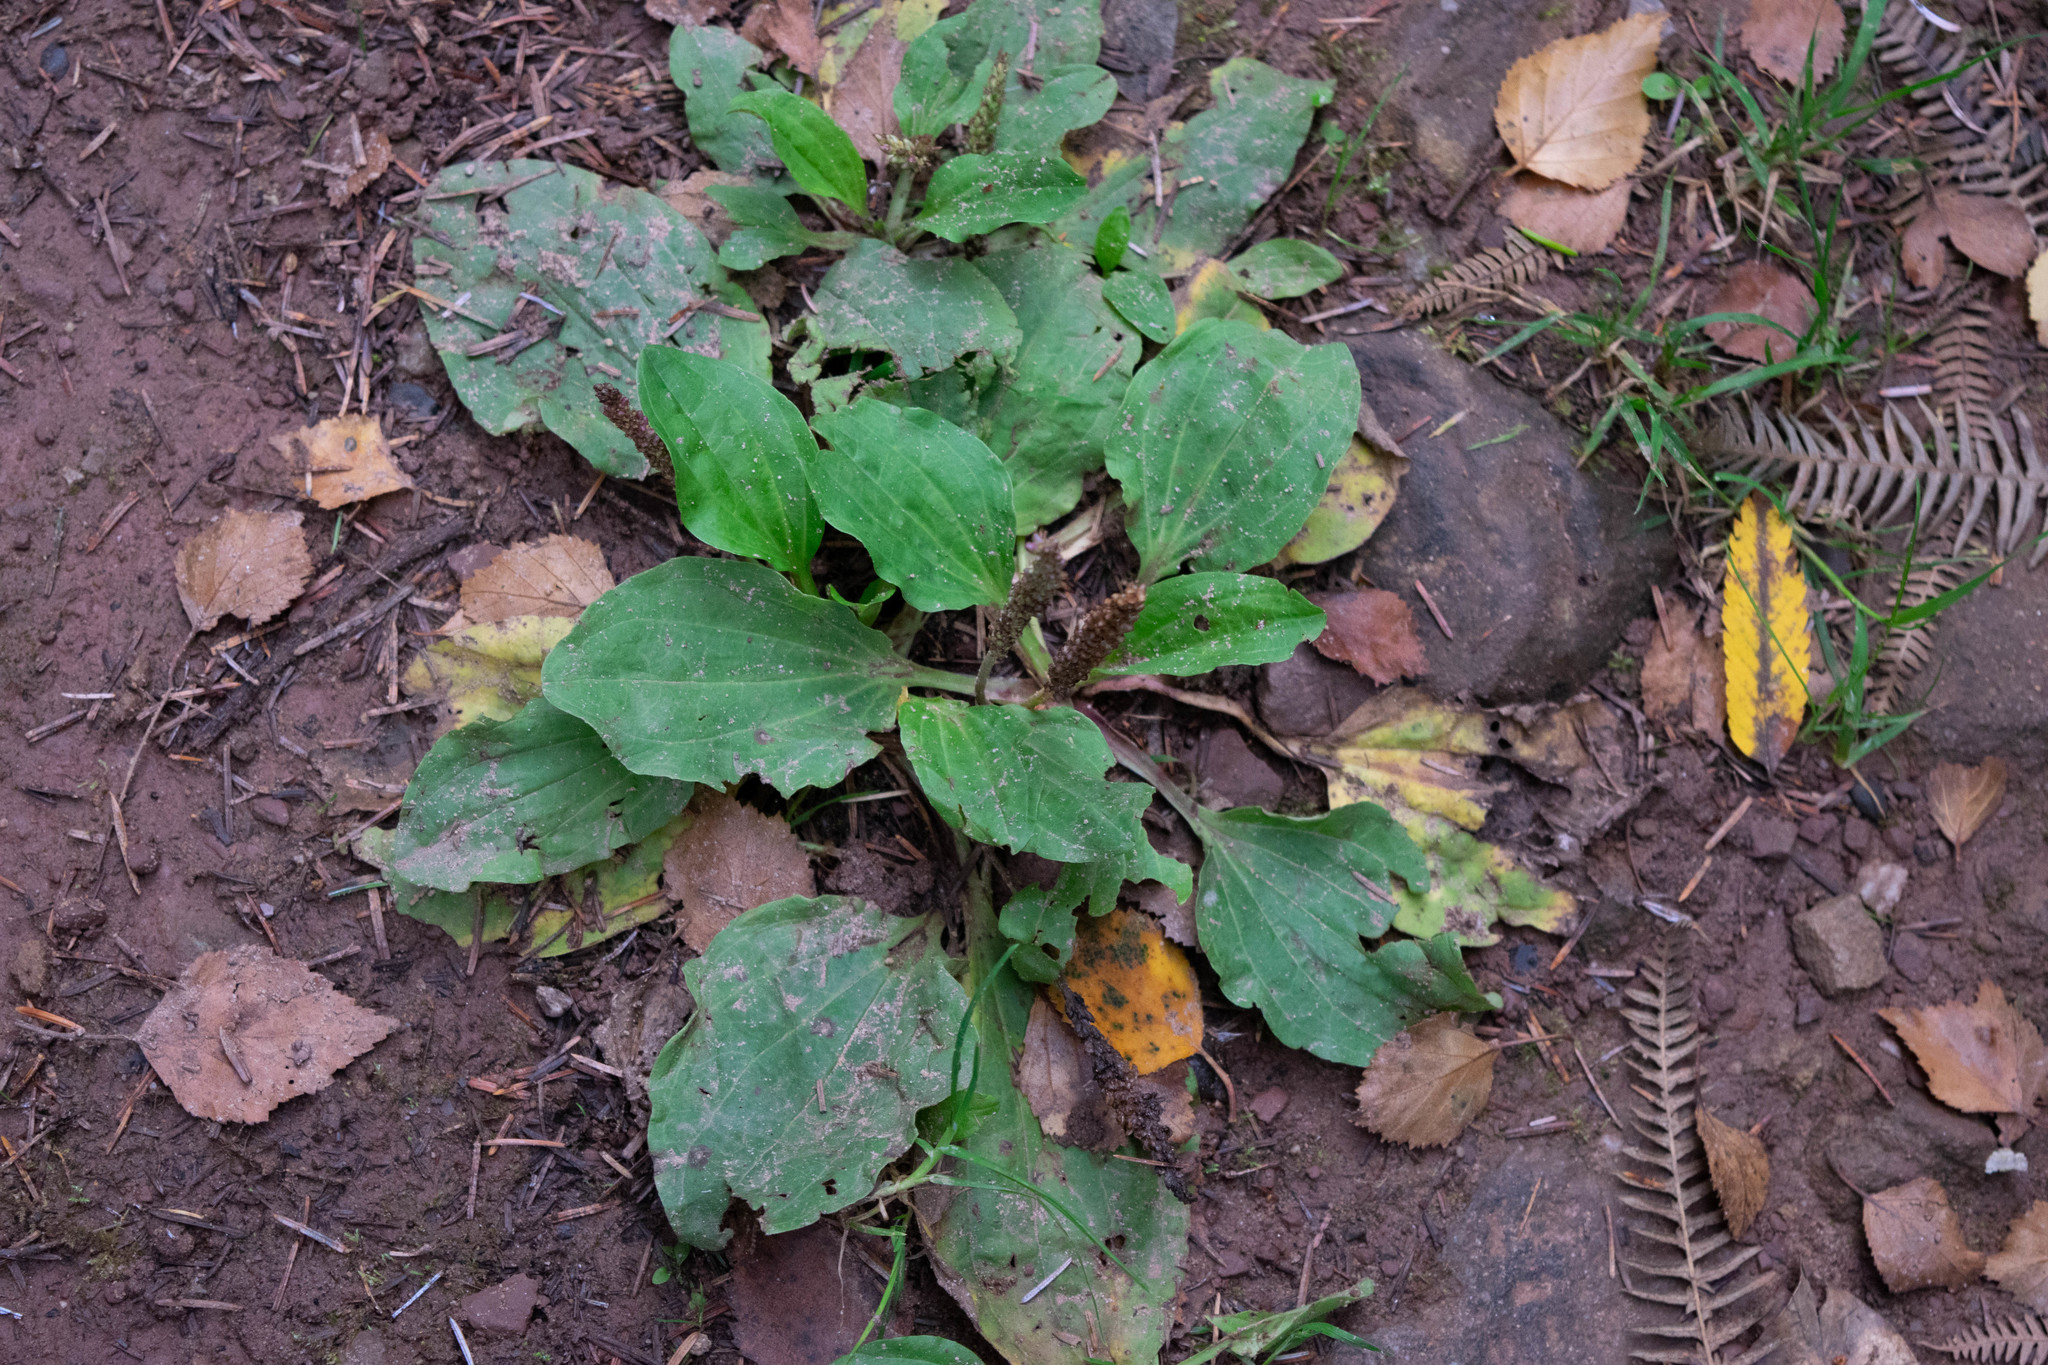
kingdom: Plantae
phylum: Tracheophyta
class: Magnoliopsida
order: Lamiales
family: Plantaginaceae
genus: Plantago
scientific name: Plantago major
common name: Common plantain
